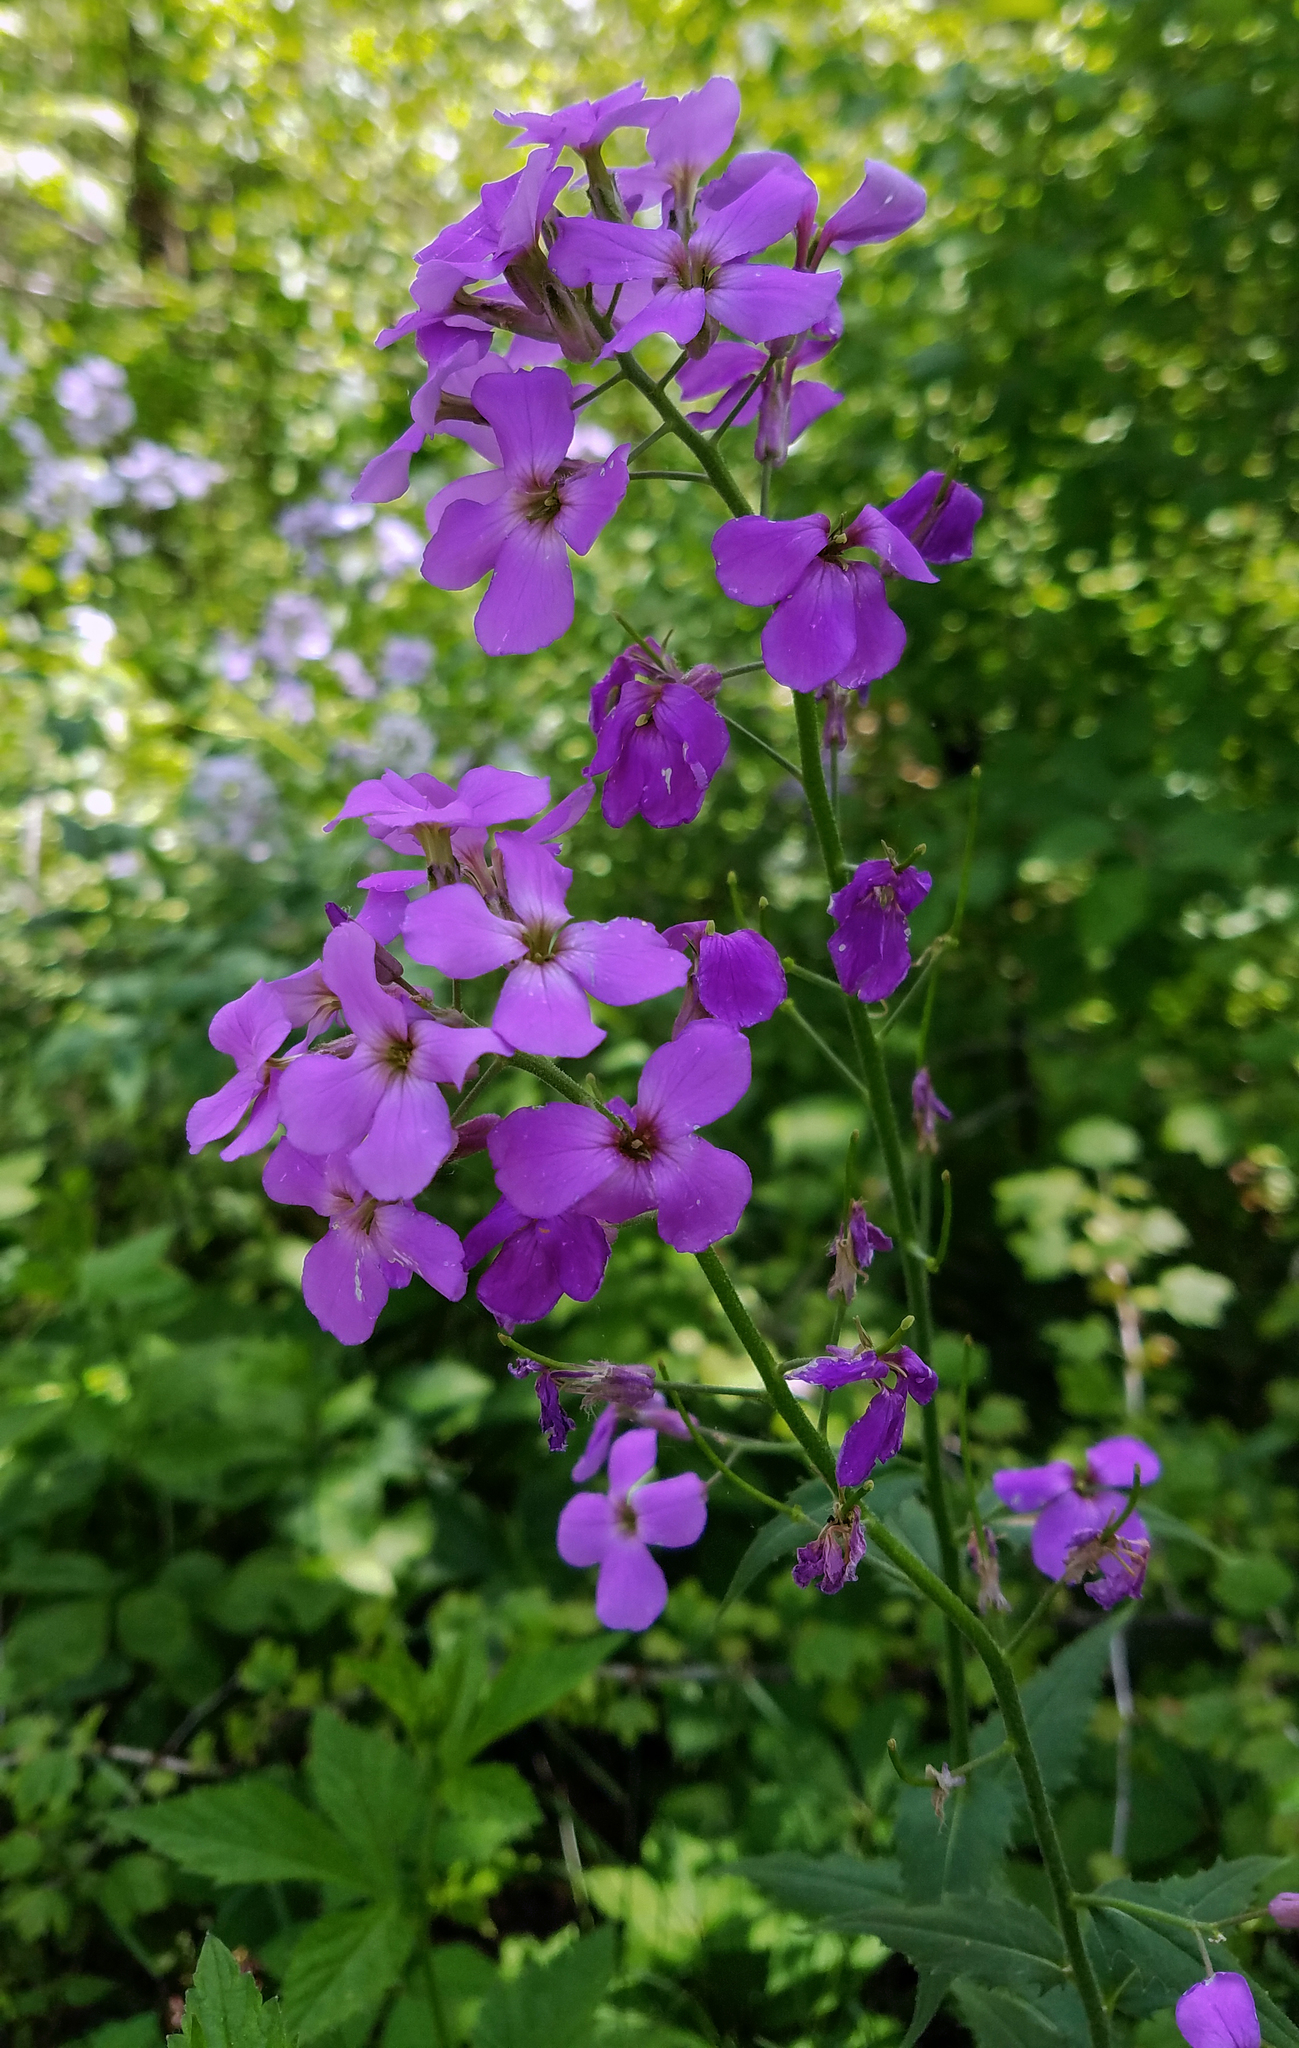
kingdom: Plantae
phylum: Tracheophyta
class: Magnoliopsida
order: Brassicales
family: Brassicaceae
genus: Hesperis
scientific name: Hesperis matronalis
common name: Dame's-violet
